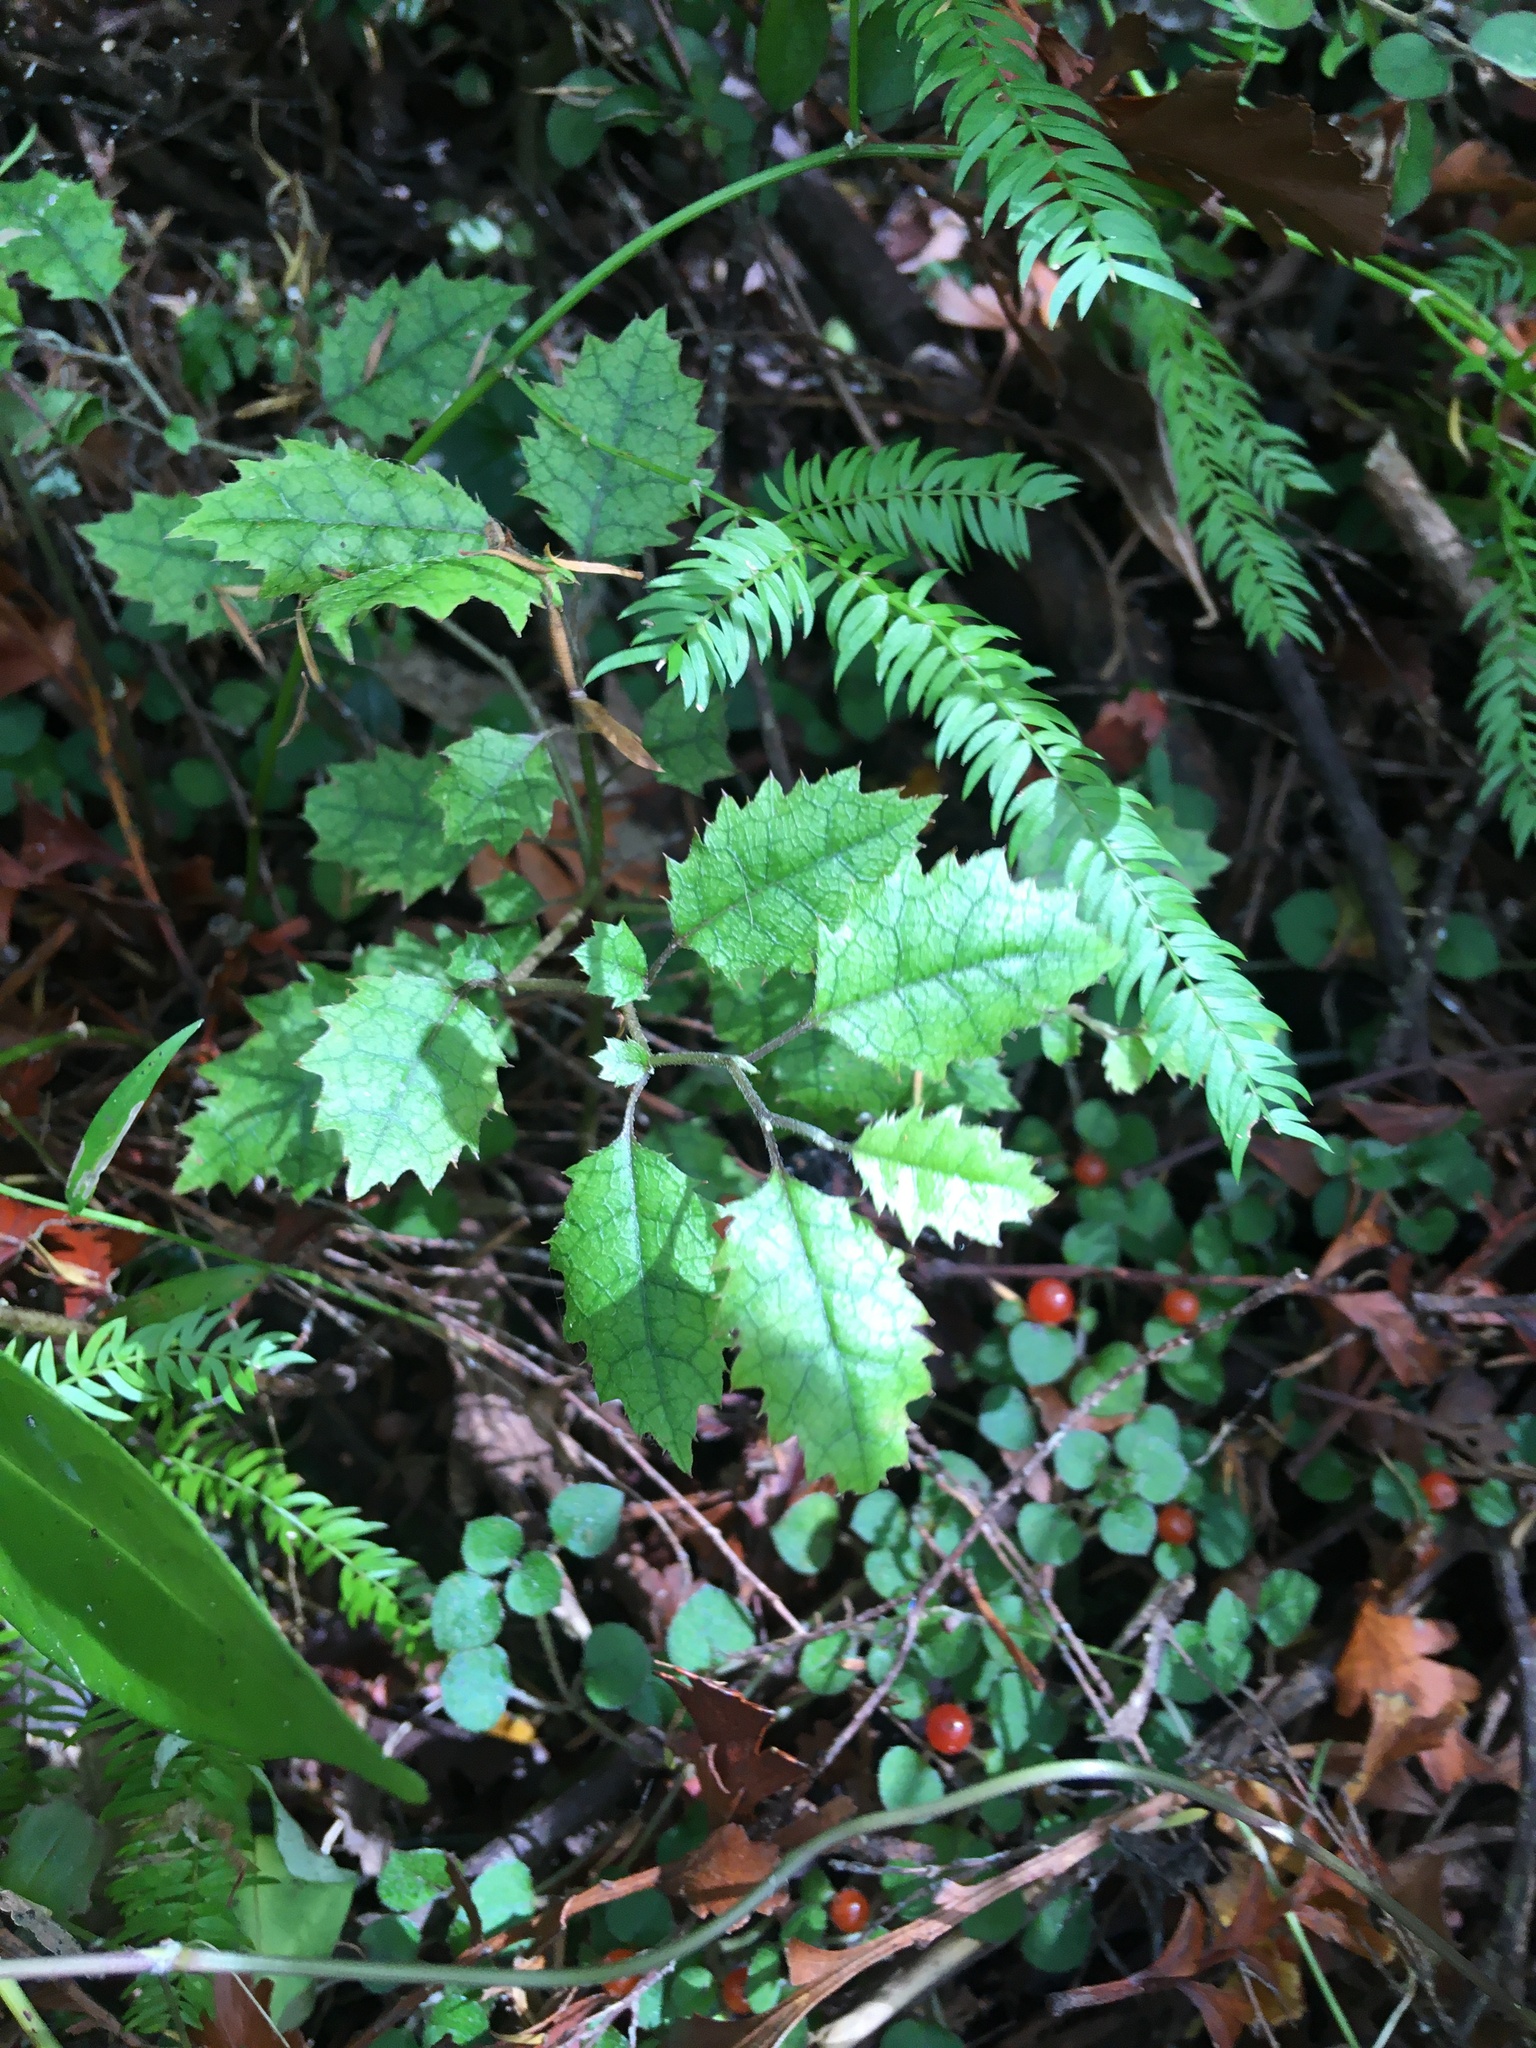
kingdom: Plantae
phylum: Tracheophyta
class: Magnoliopsida
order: Asterales
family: Rousseaceae
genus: Carpodetus
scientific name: Carpodetus serratus
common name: White mapau
